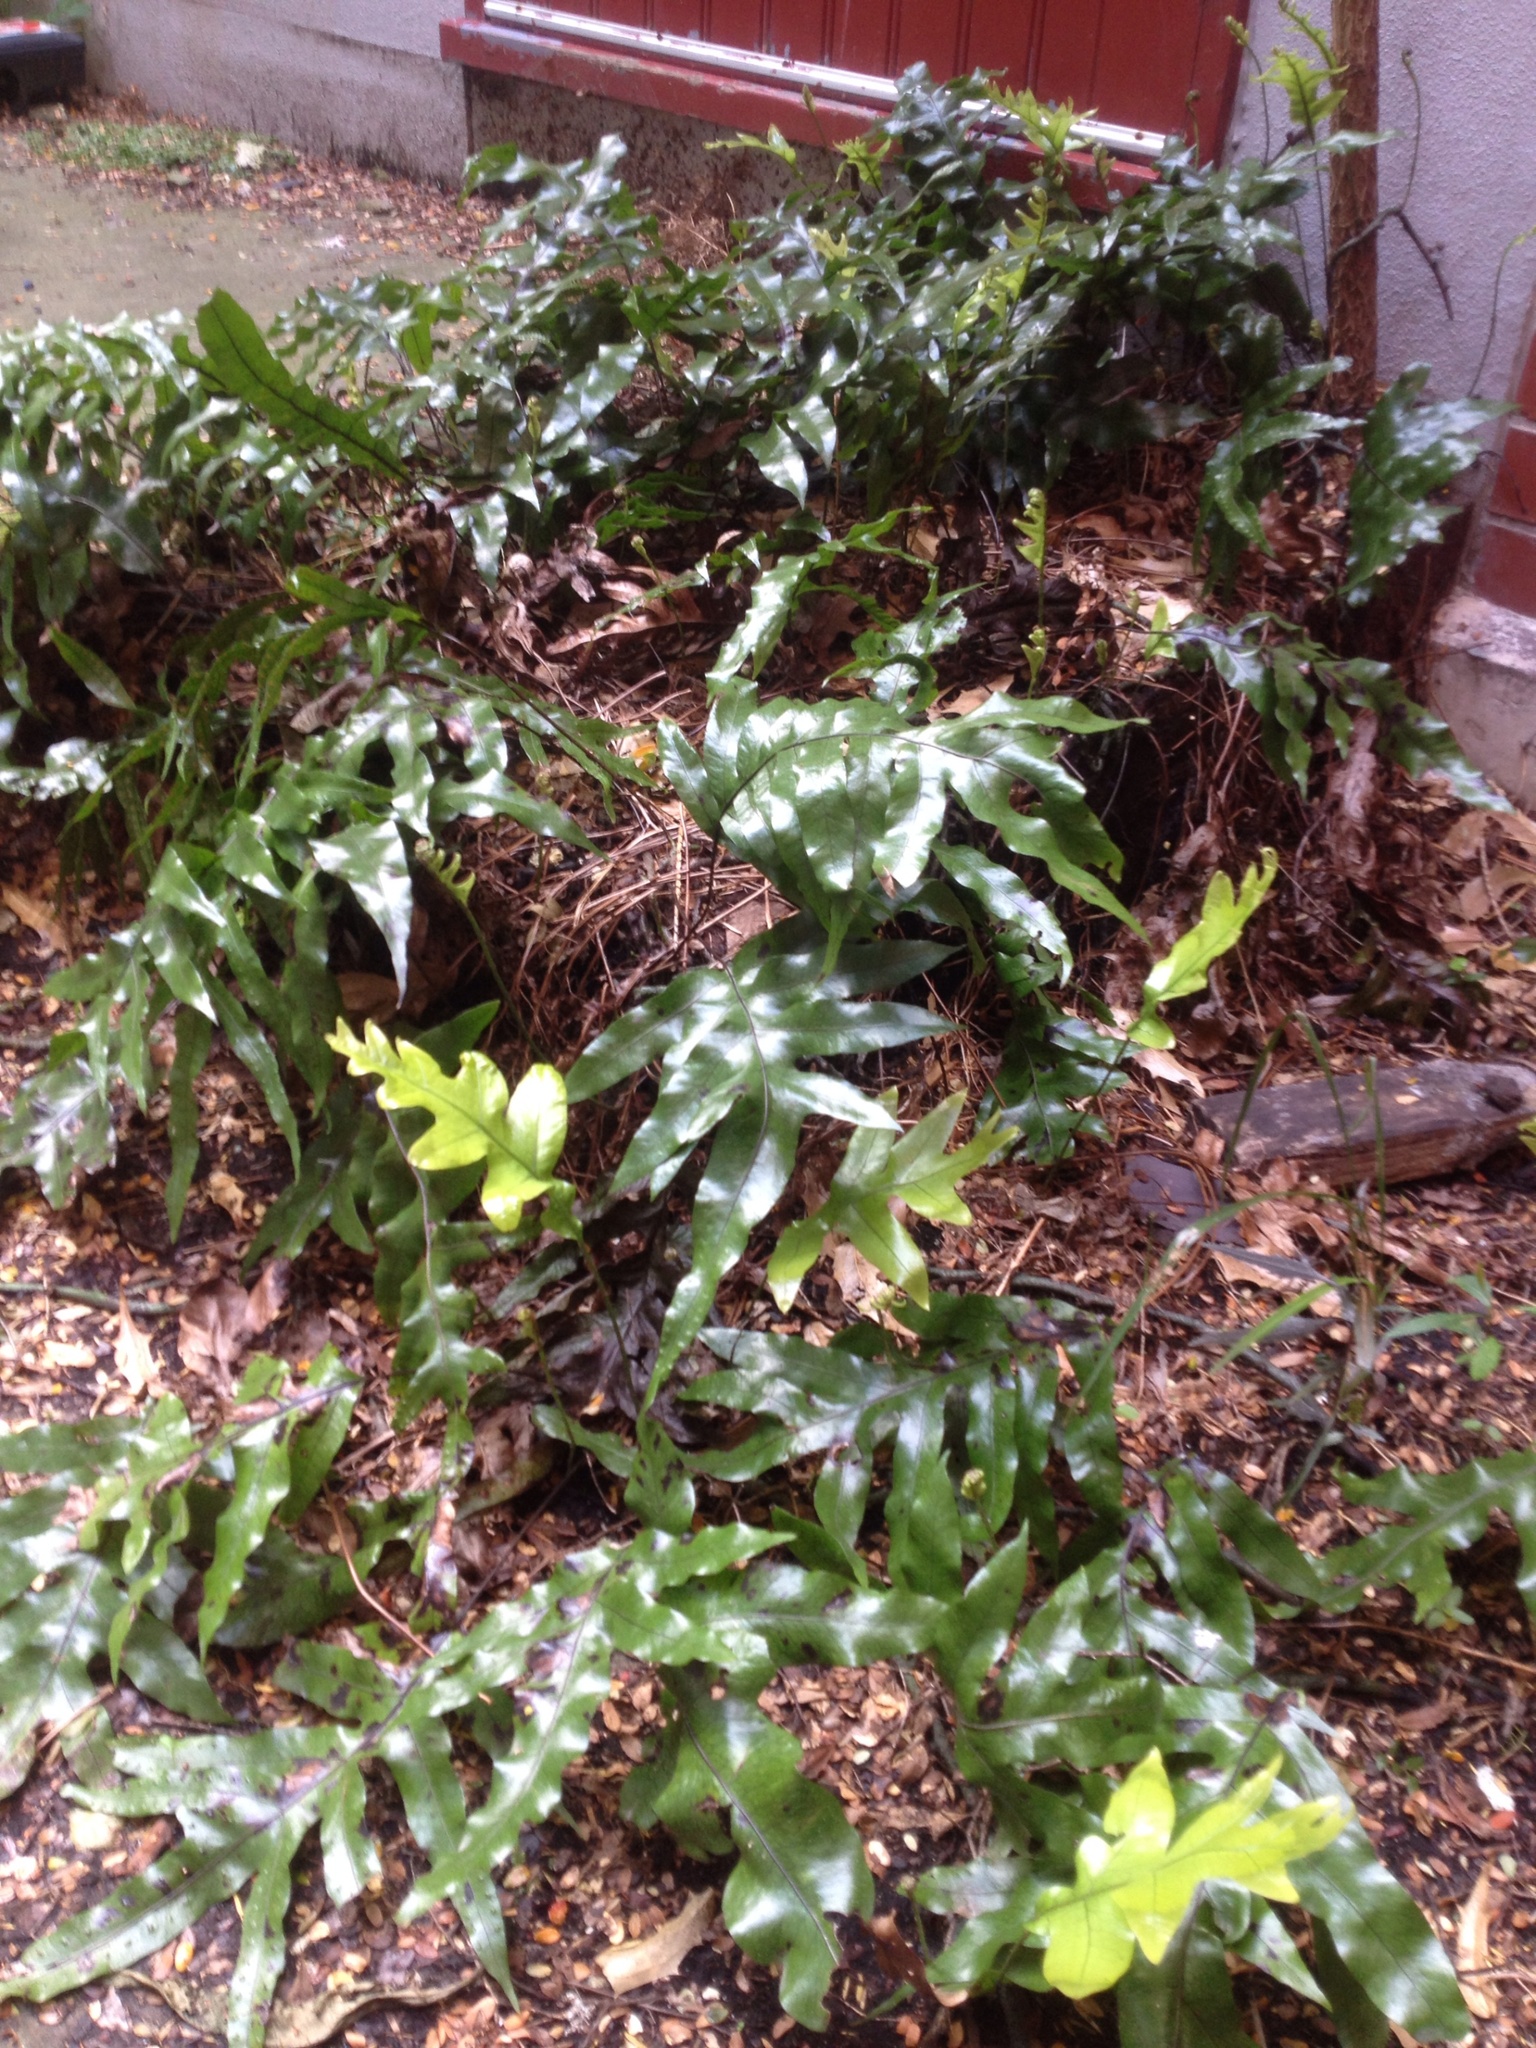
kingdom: Plantae
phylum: Tracheophyta
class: Polypodiopsida
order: Polypodiales
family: Polypodiaceae
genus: Lecanopteris
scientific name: Lecanopteris pustulata
